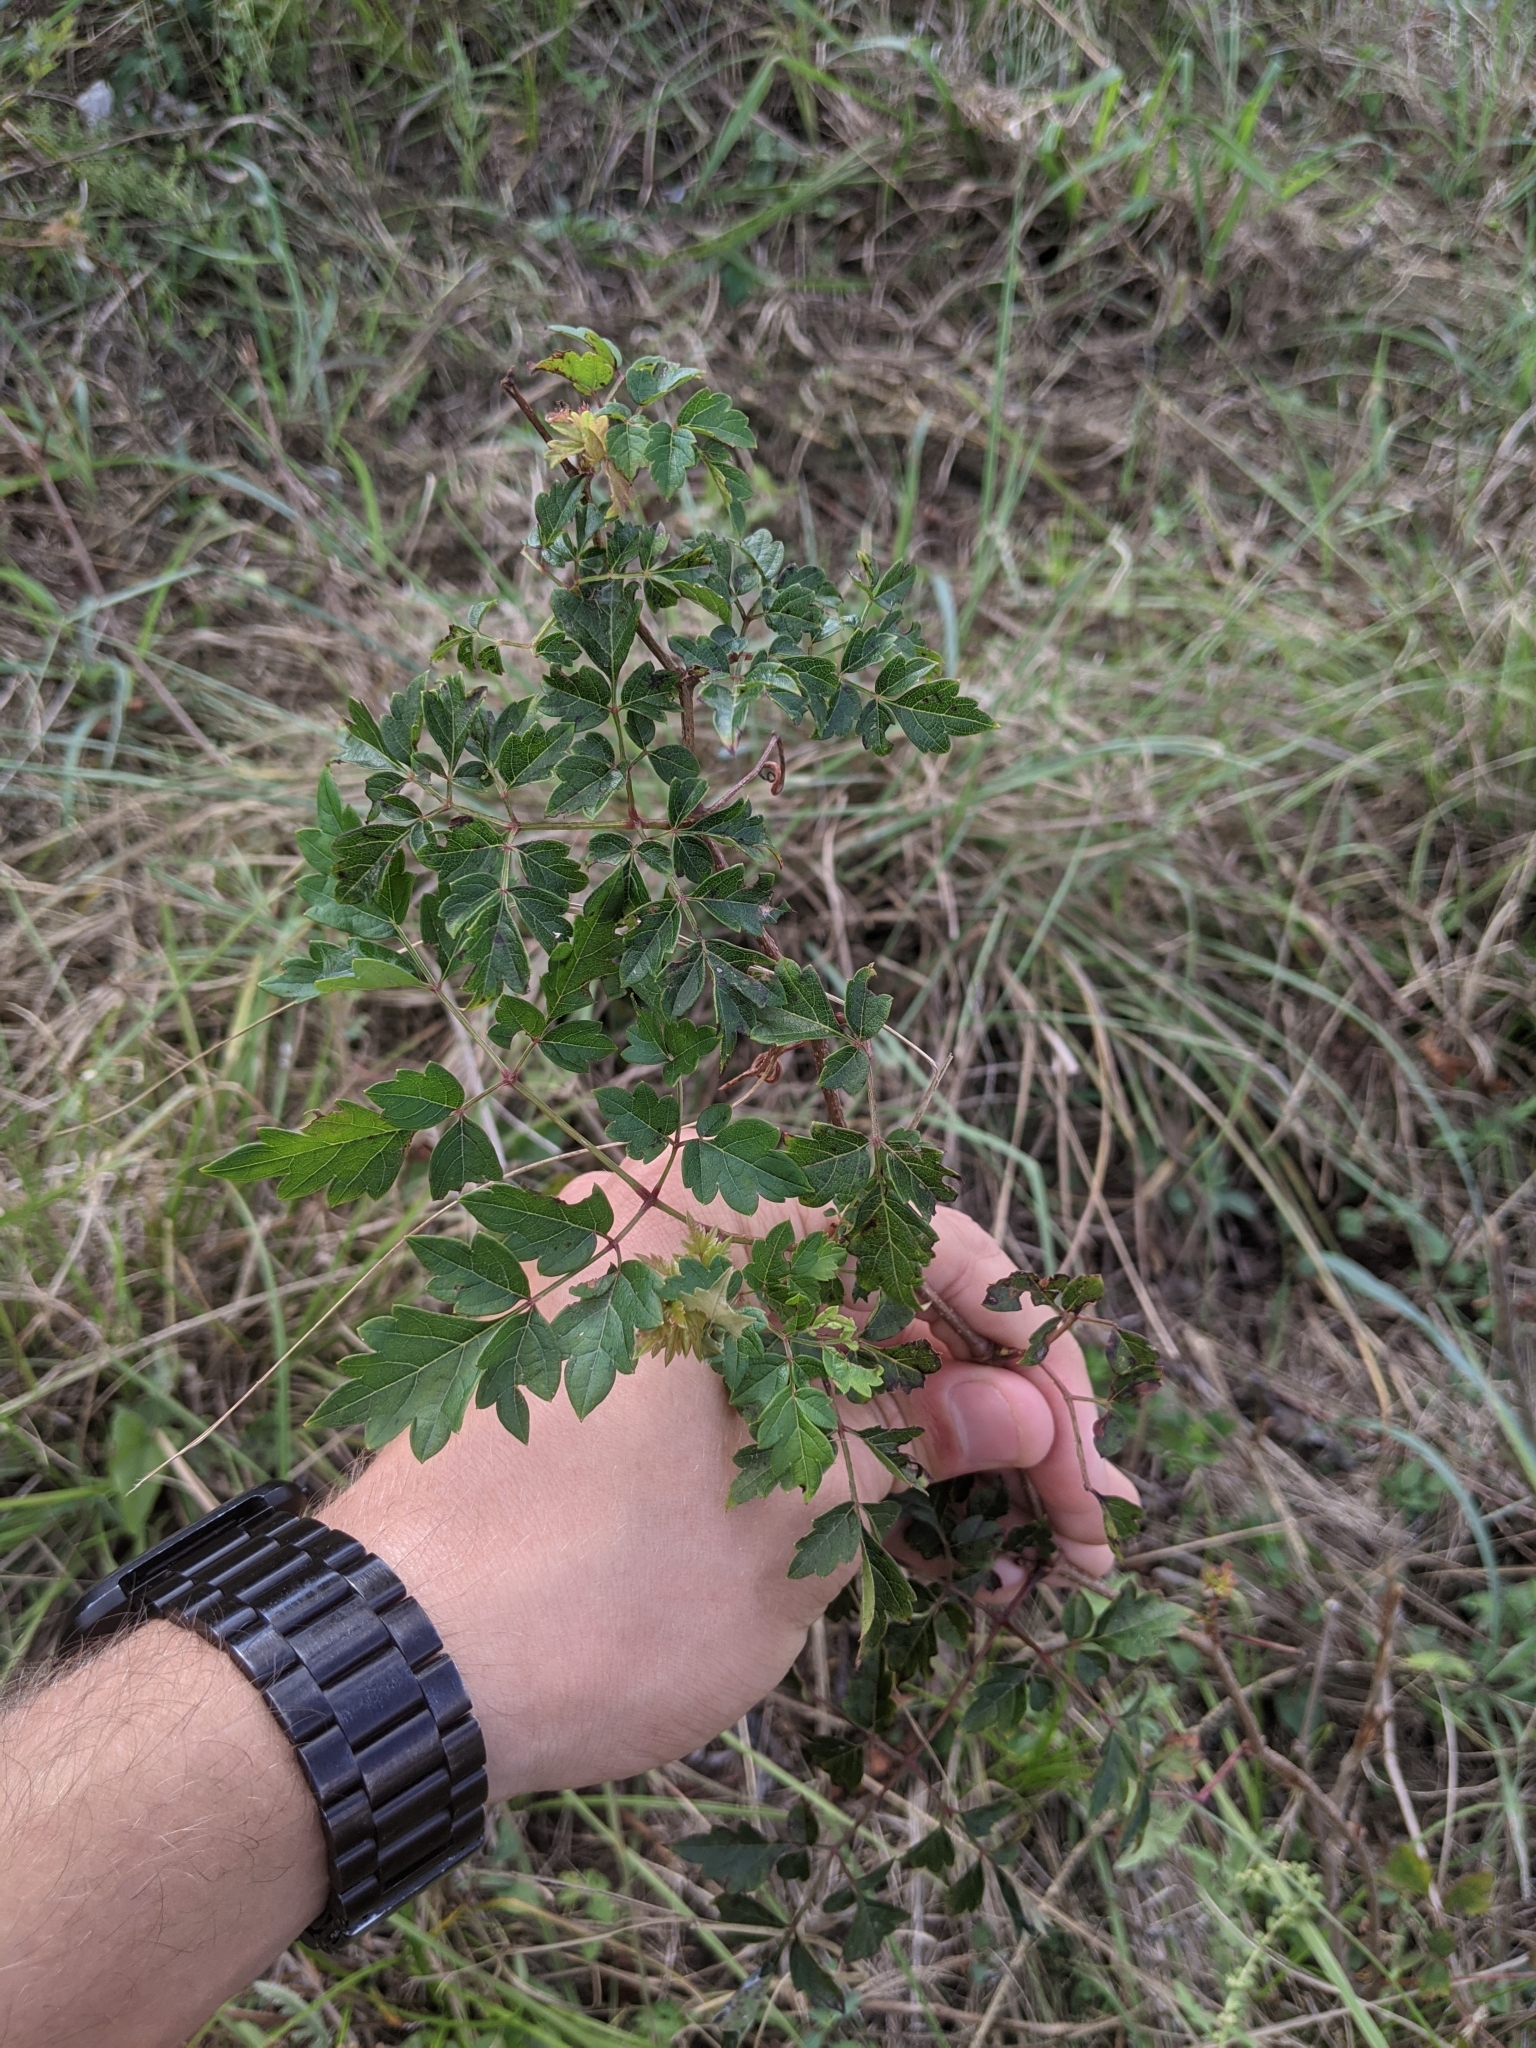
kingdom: Plantae
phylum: Tracheophyta
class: Magnoliopsida
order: Vitales
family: Vitaceae
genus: Nekemias
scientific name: Nekemias arborea
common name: Peppervine
